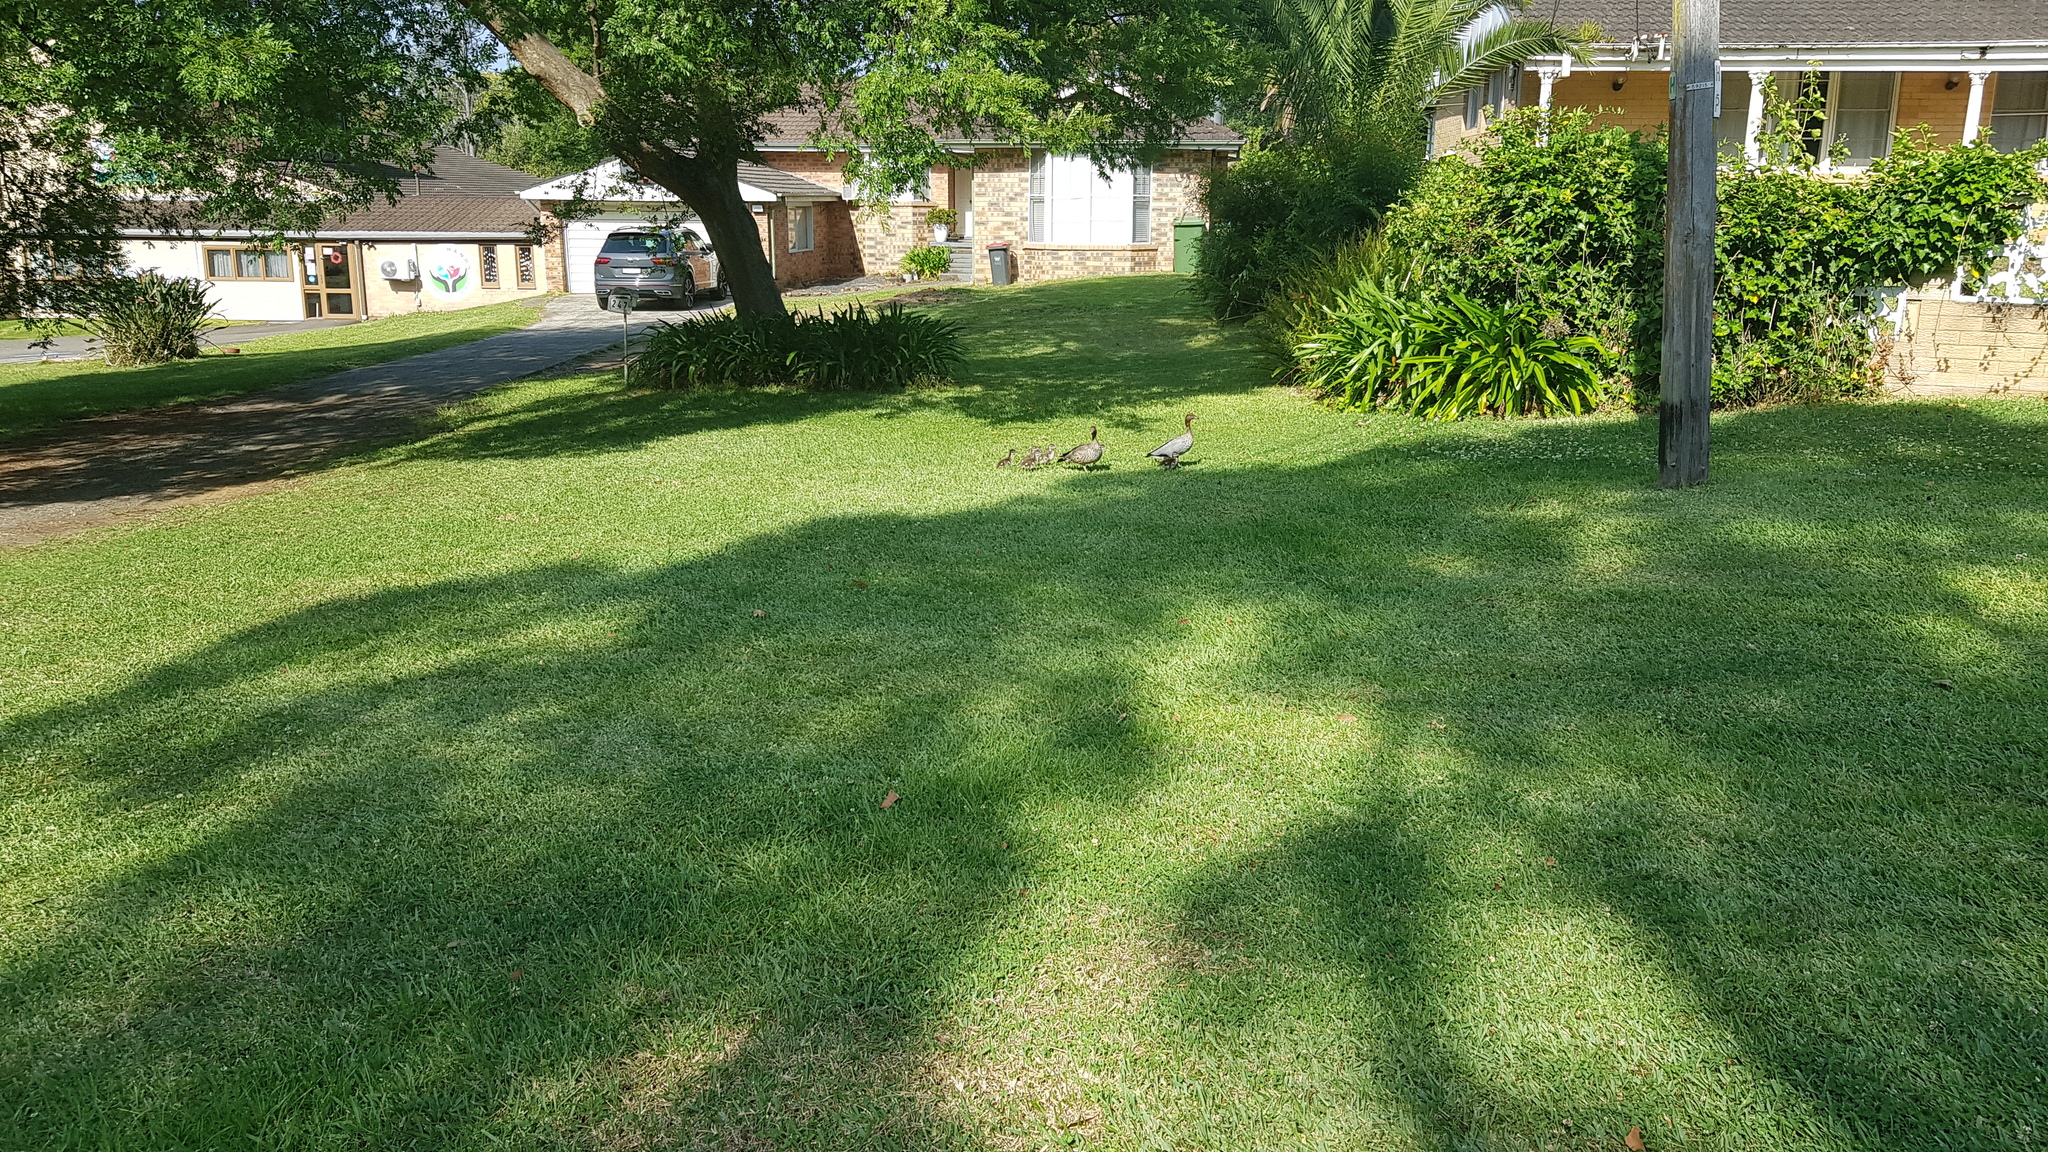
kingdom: Animalia
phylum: Chordata
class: Aves
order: Anseriformes
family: Anatidae
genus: Chenonetta
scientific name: Chenonetta jubata
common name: Maned duck
